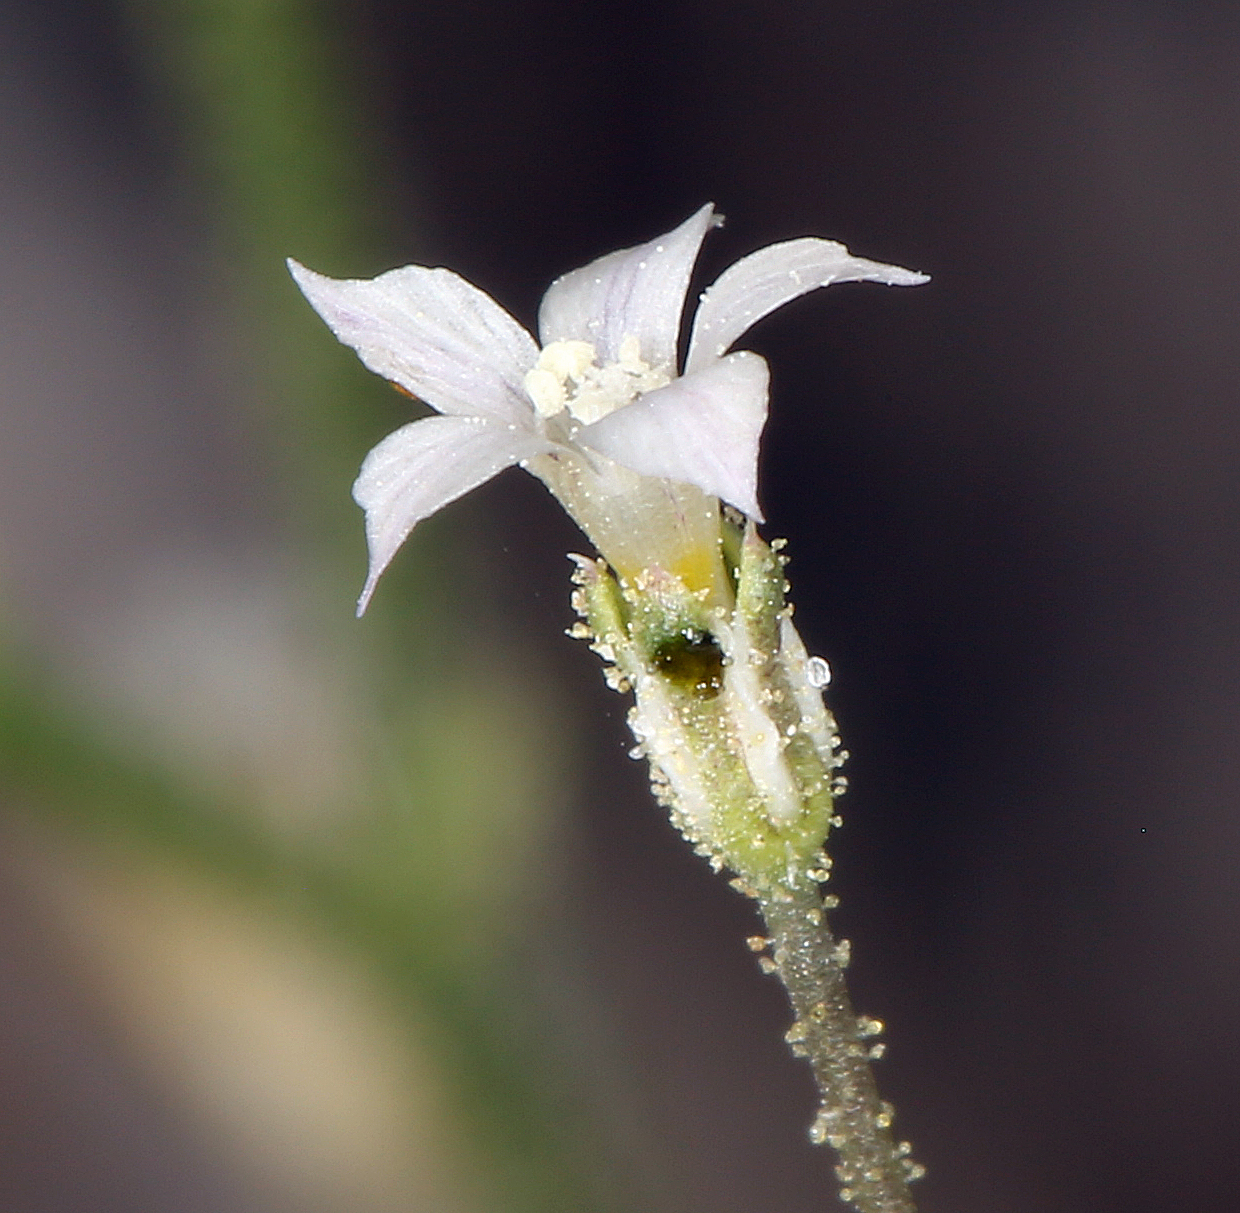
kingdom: Plantae
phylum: Tracheophyta
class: Magnoliopsida
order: Ericales
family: Polemoniaceae
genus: Aliciella
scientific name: Aliciella leptomeria
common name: Sand gilia
